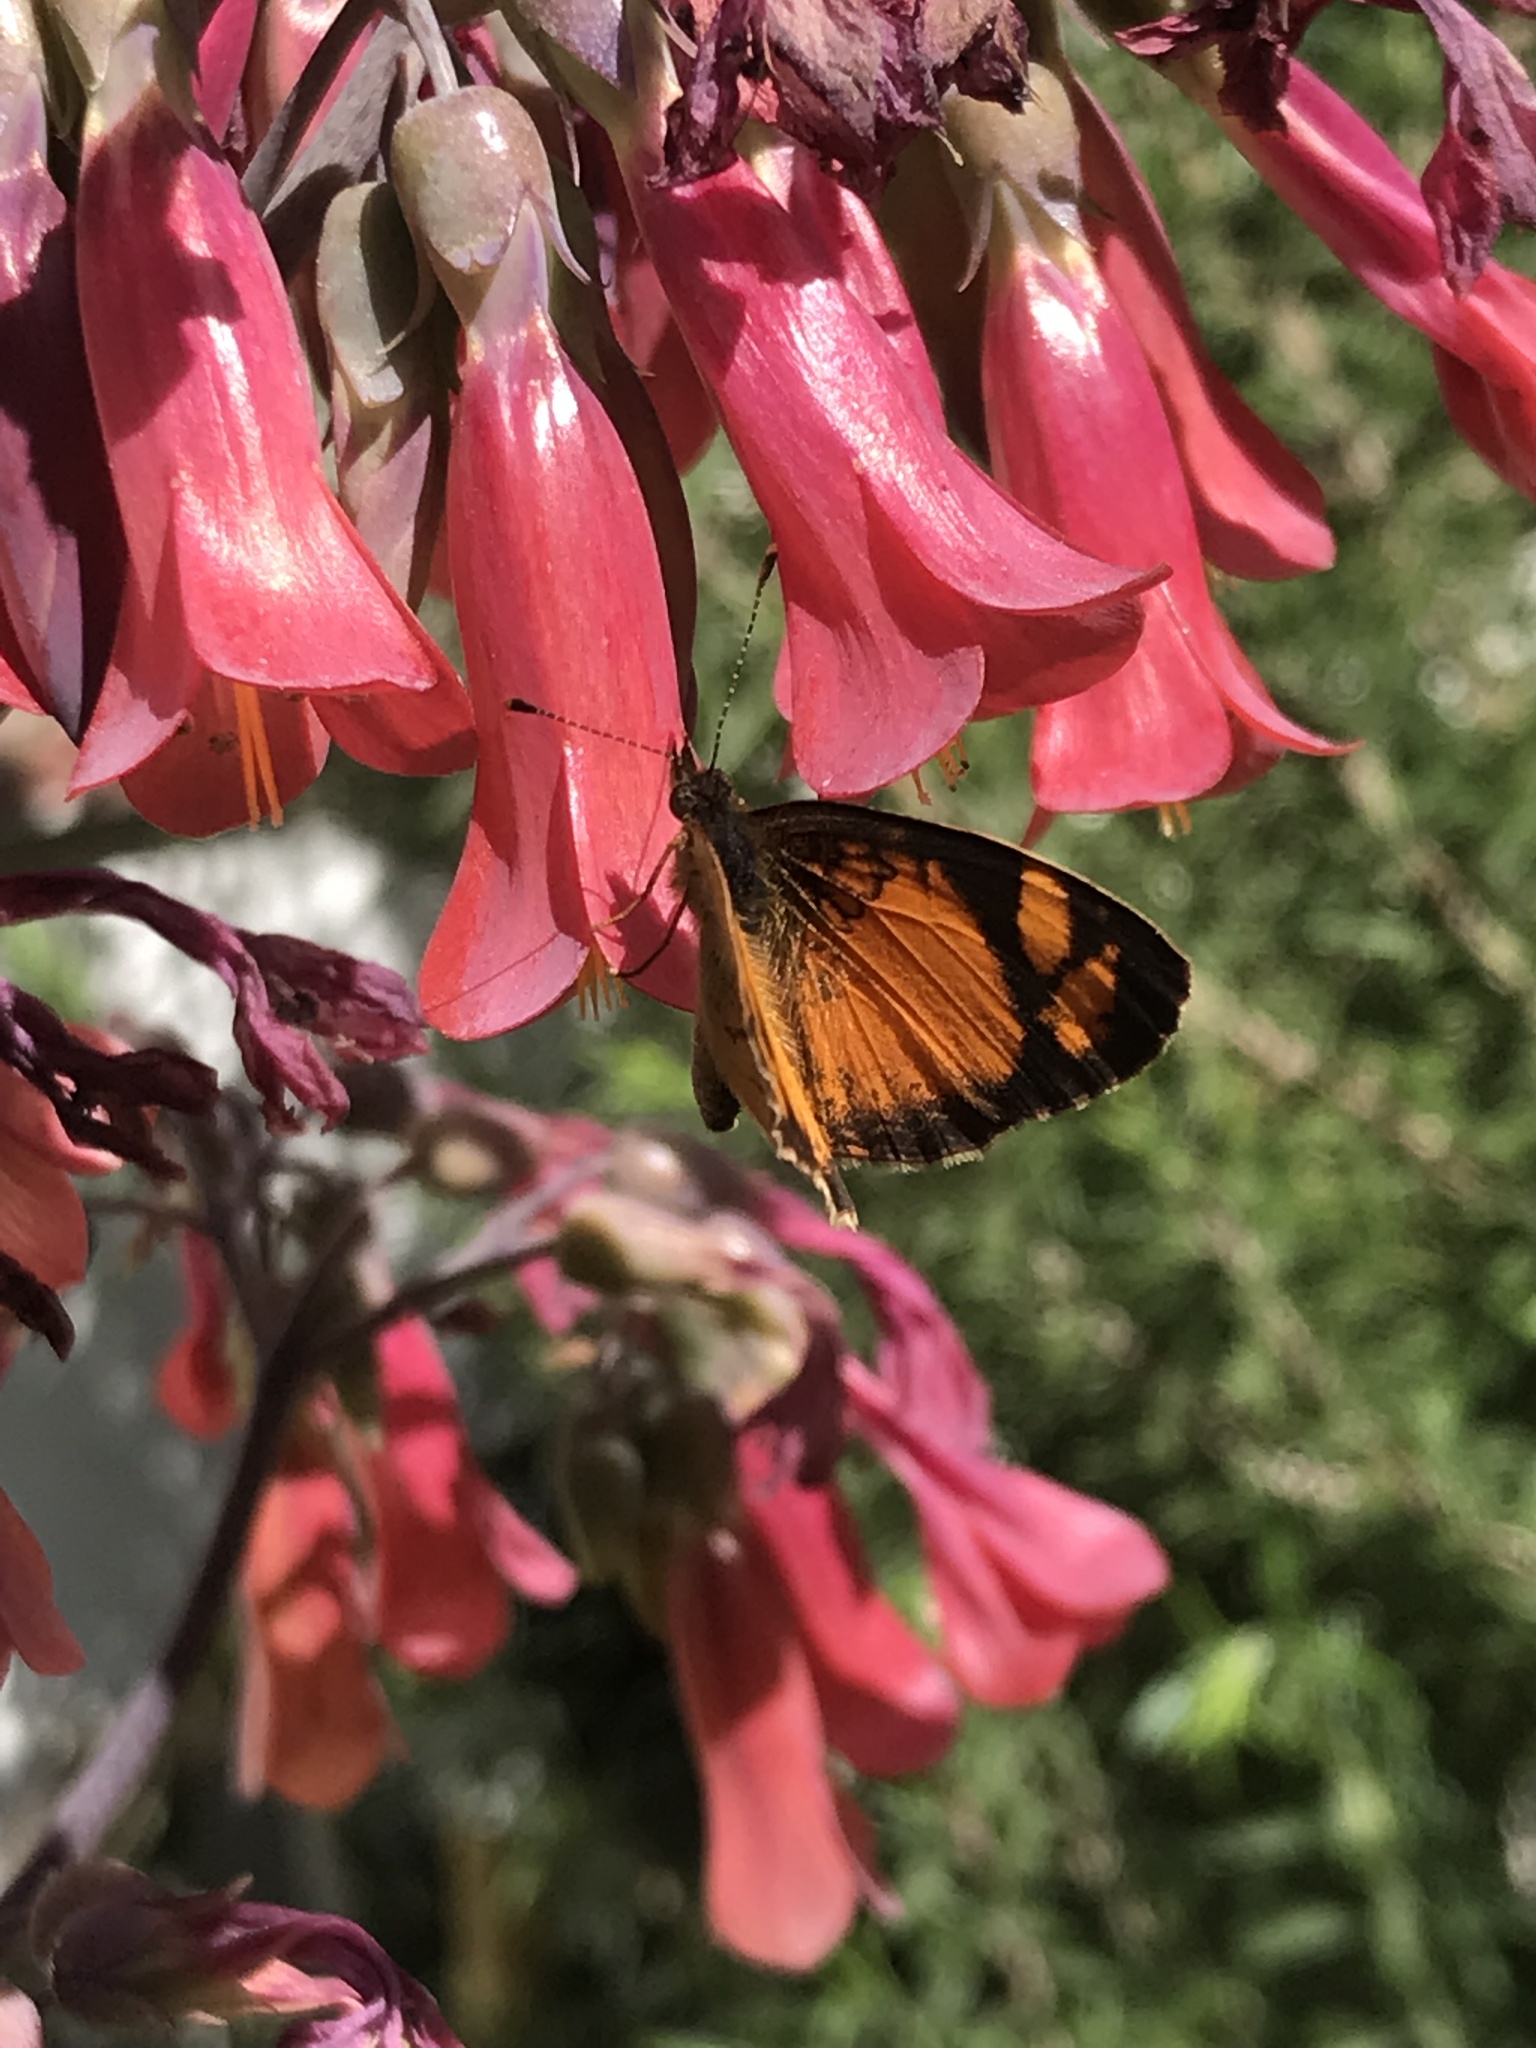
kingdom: Animalia
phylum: Arthropoda
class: Insecta
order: Lepidoptera
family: Nymphalidae
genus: Tegosa
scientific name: Tegosa claudina
